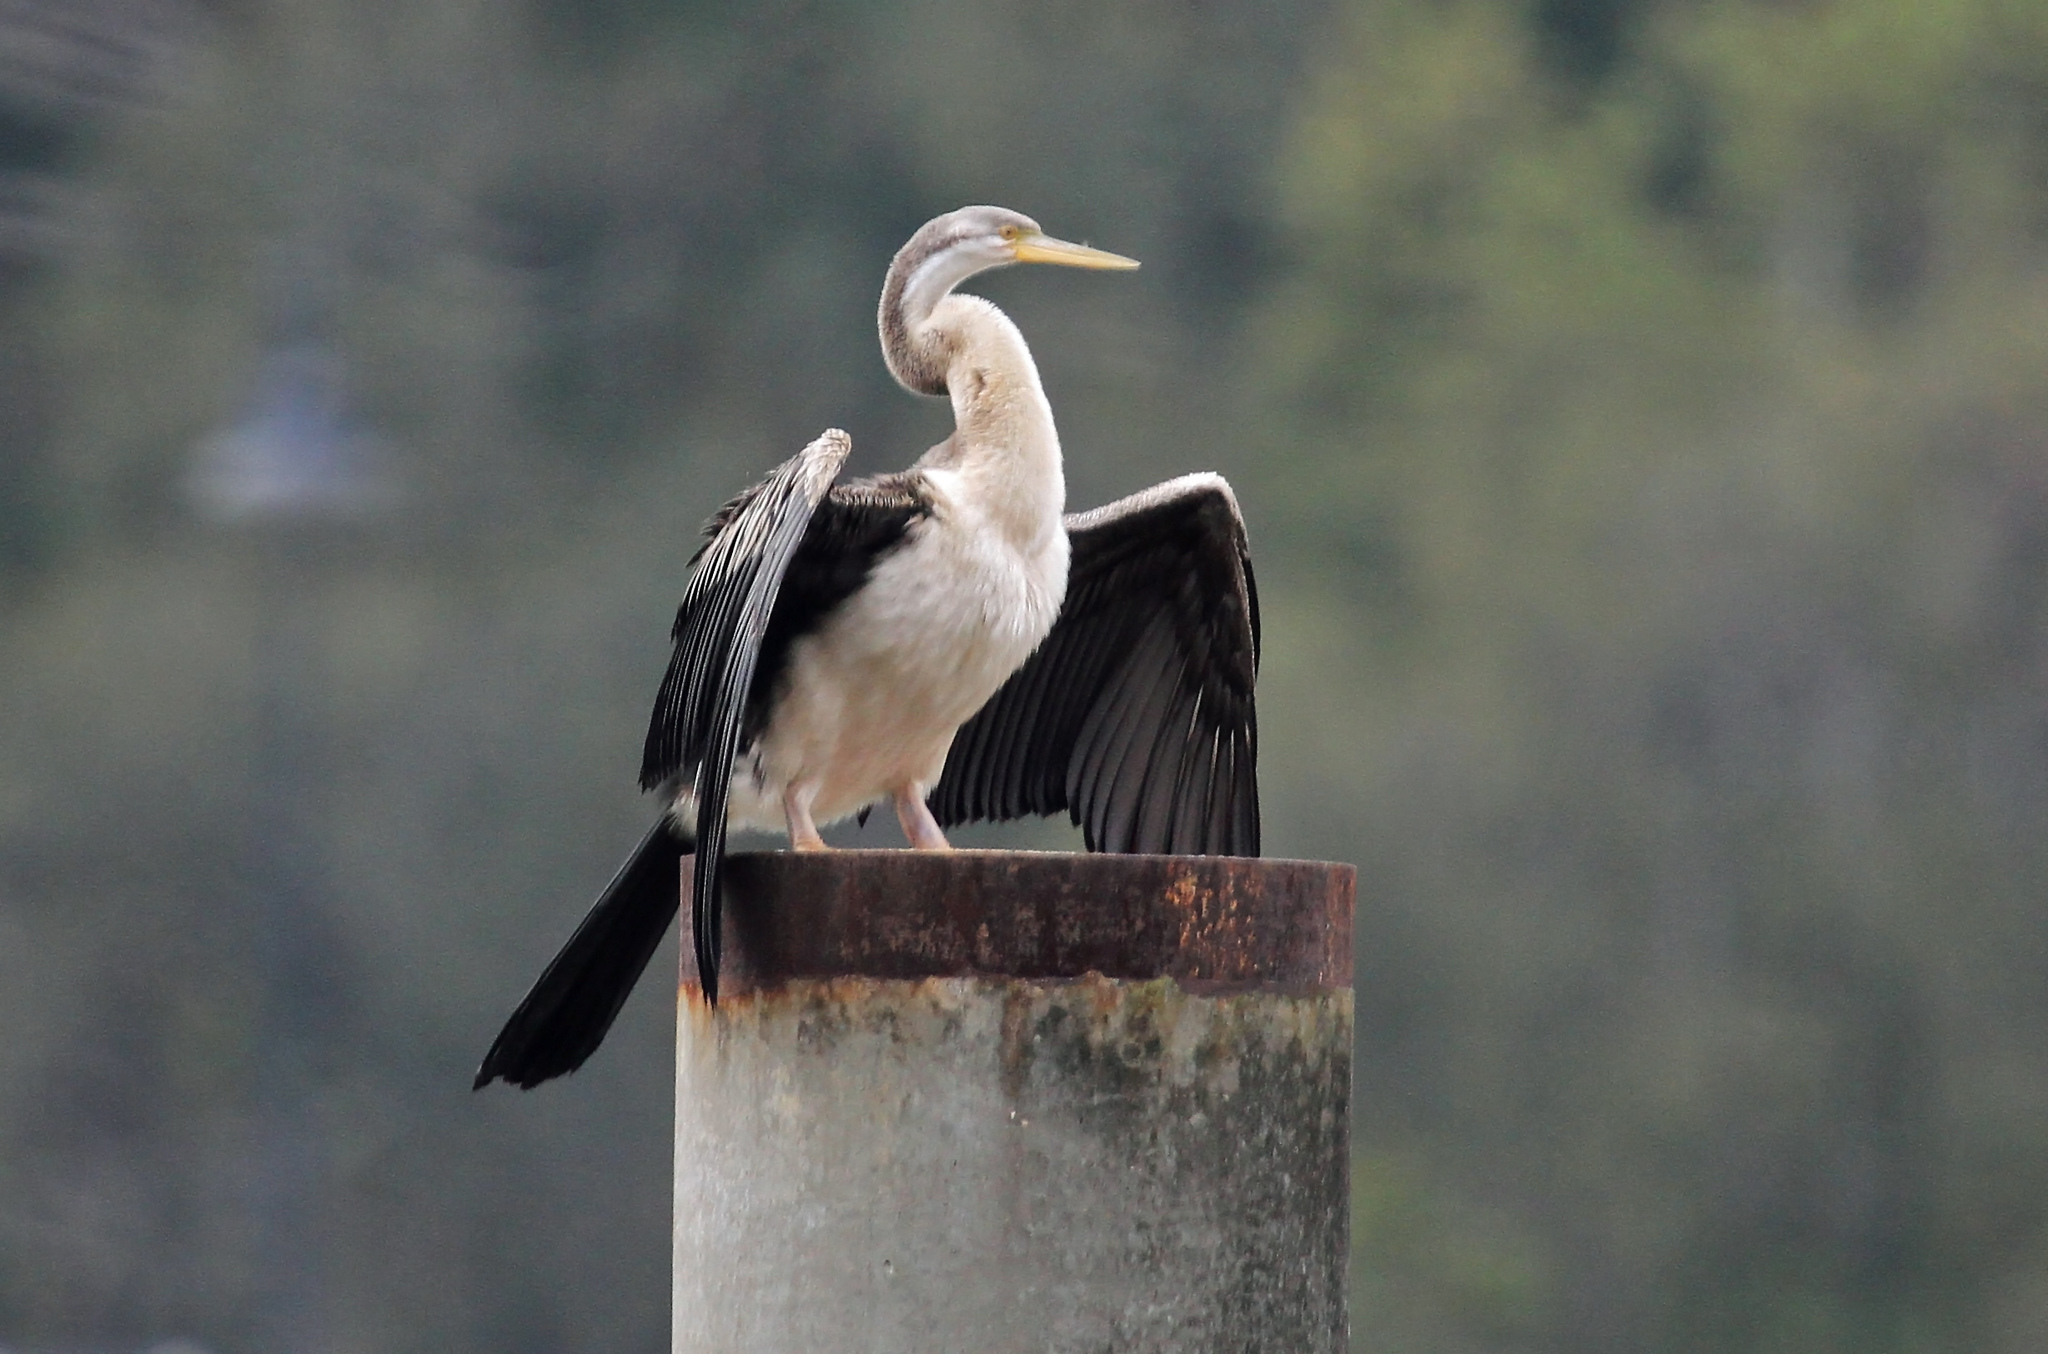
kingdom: Animalia
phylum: Chordata
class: Aves
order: Suliformes
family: Anhingidae
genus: Anhinga
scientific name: Anhinga novaehollandiae
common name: Australasian darter
